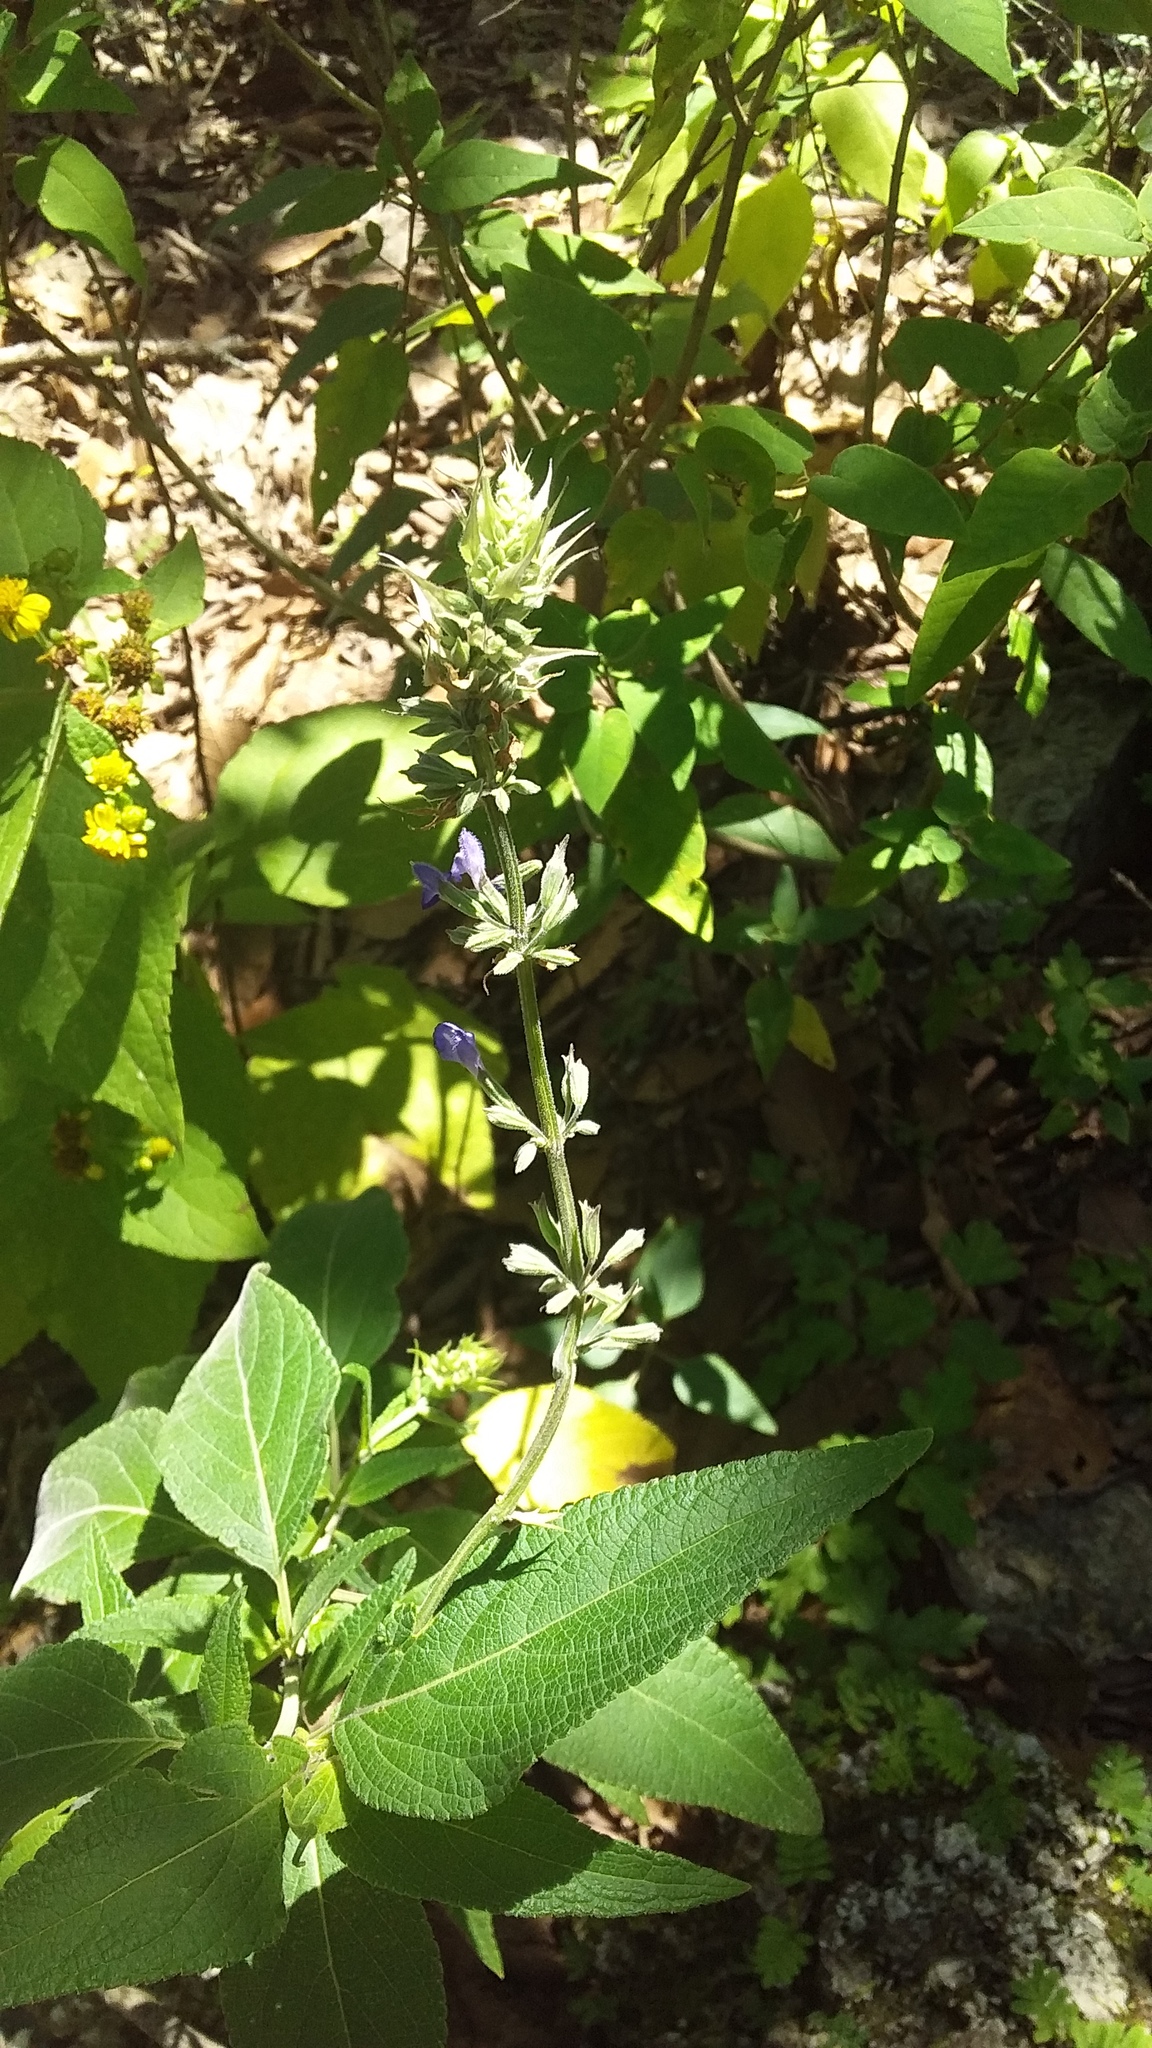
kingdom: Plantae
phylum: Tracheophyta
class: Magnoliopsida
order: Lamiales
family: Lamiaceae
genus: Salvia
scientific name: Salvia urolepis
